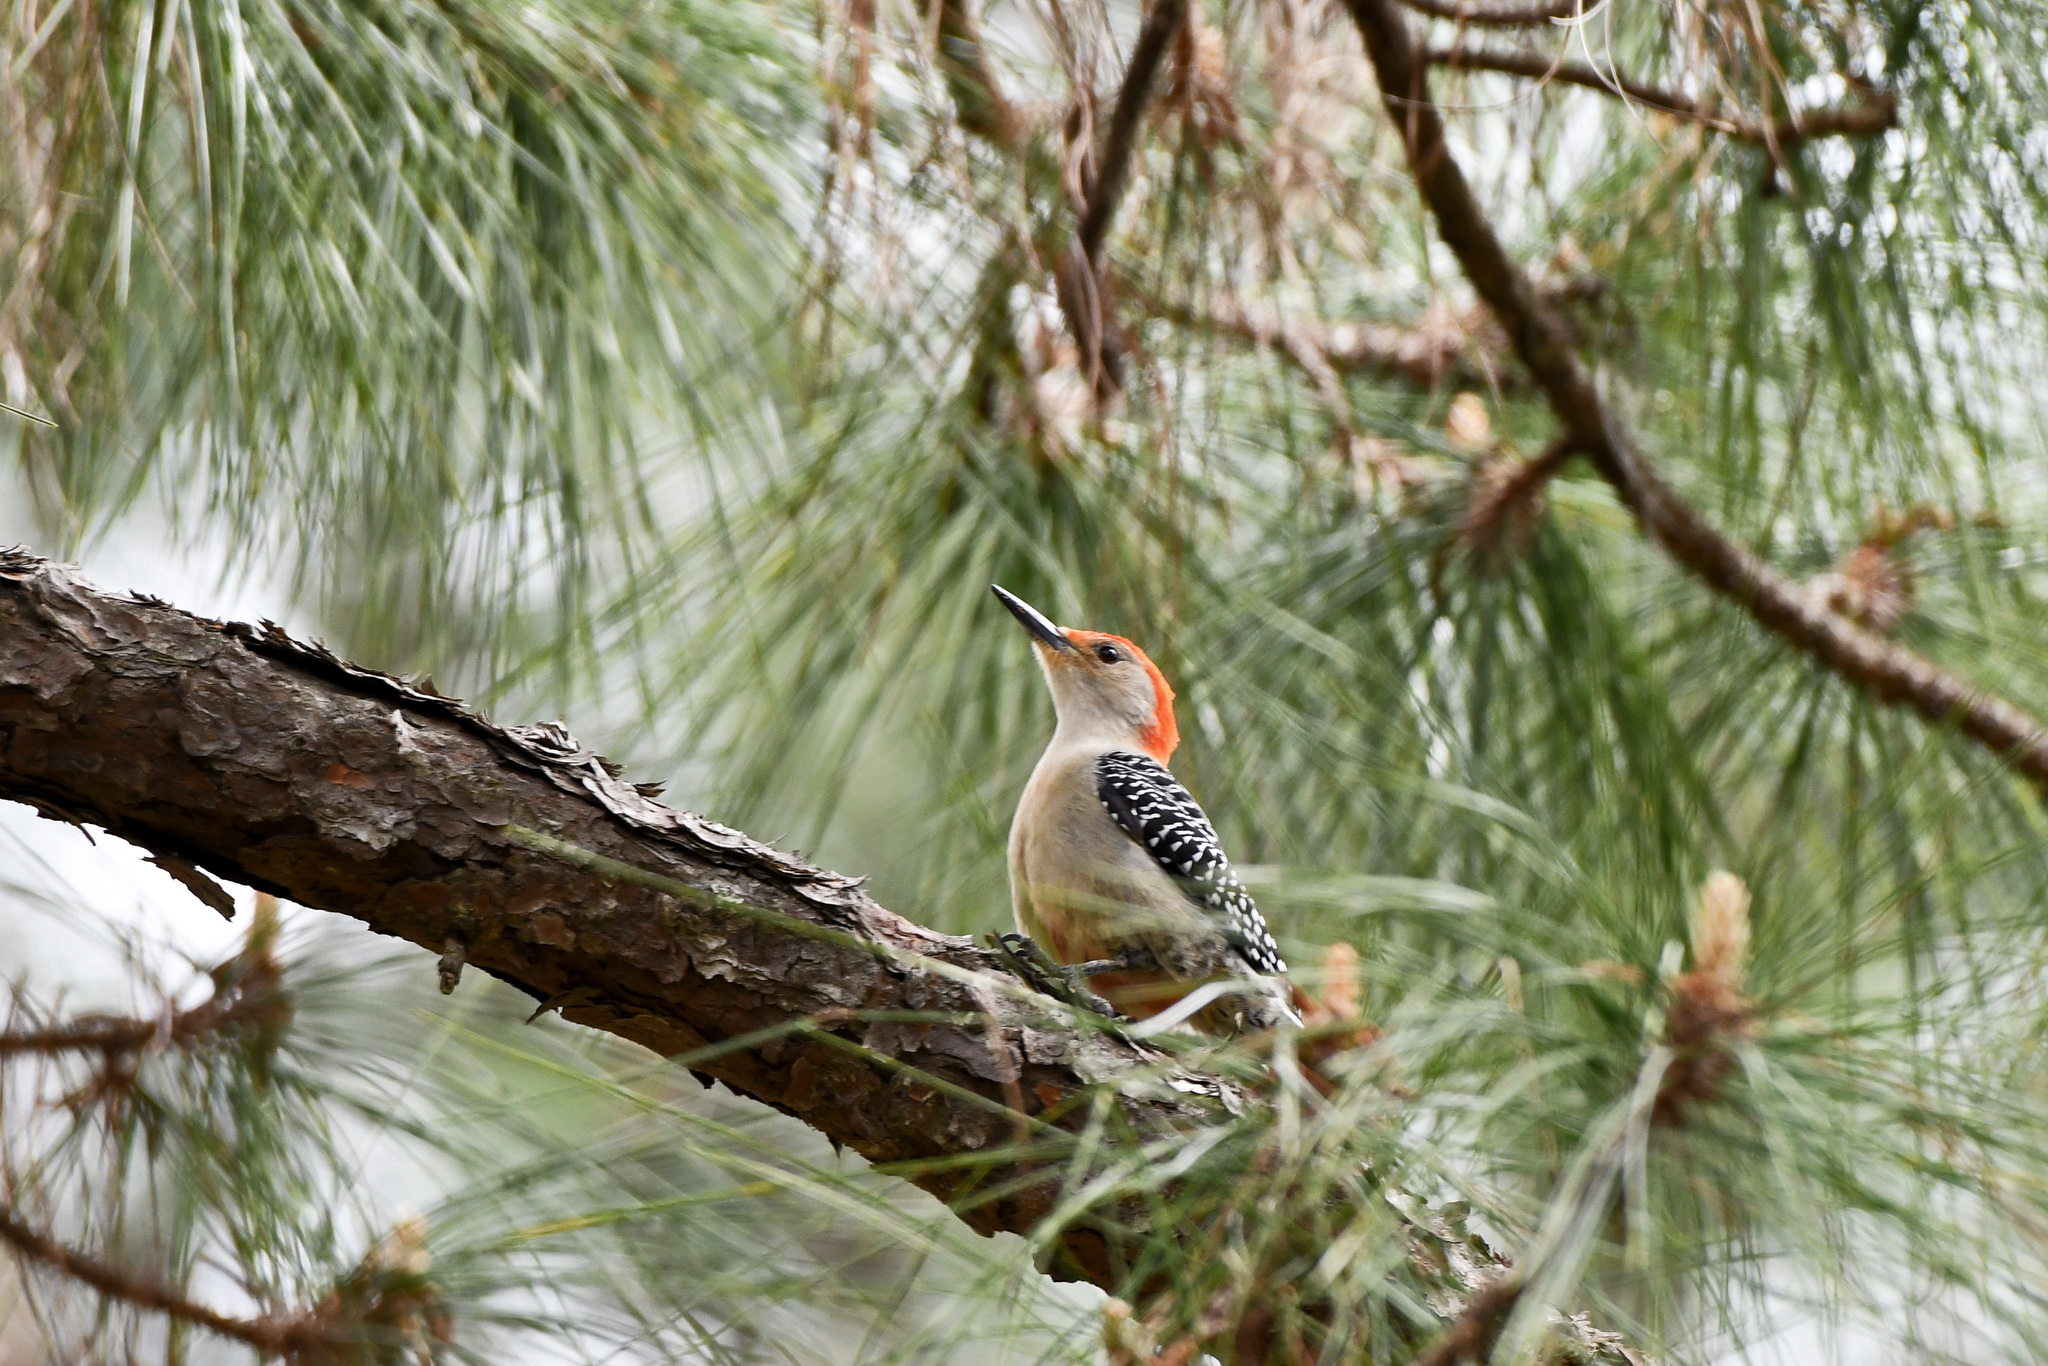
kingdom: Animalia
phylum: Chordata
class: Aves
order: Piciformes
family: Picidae
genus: Melanerpes
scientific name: Melanerpes carolinus
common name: Red-bellied woodpecker
